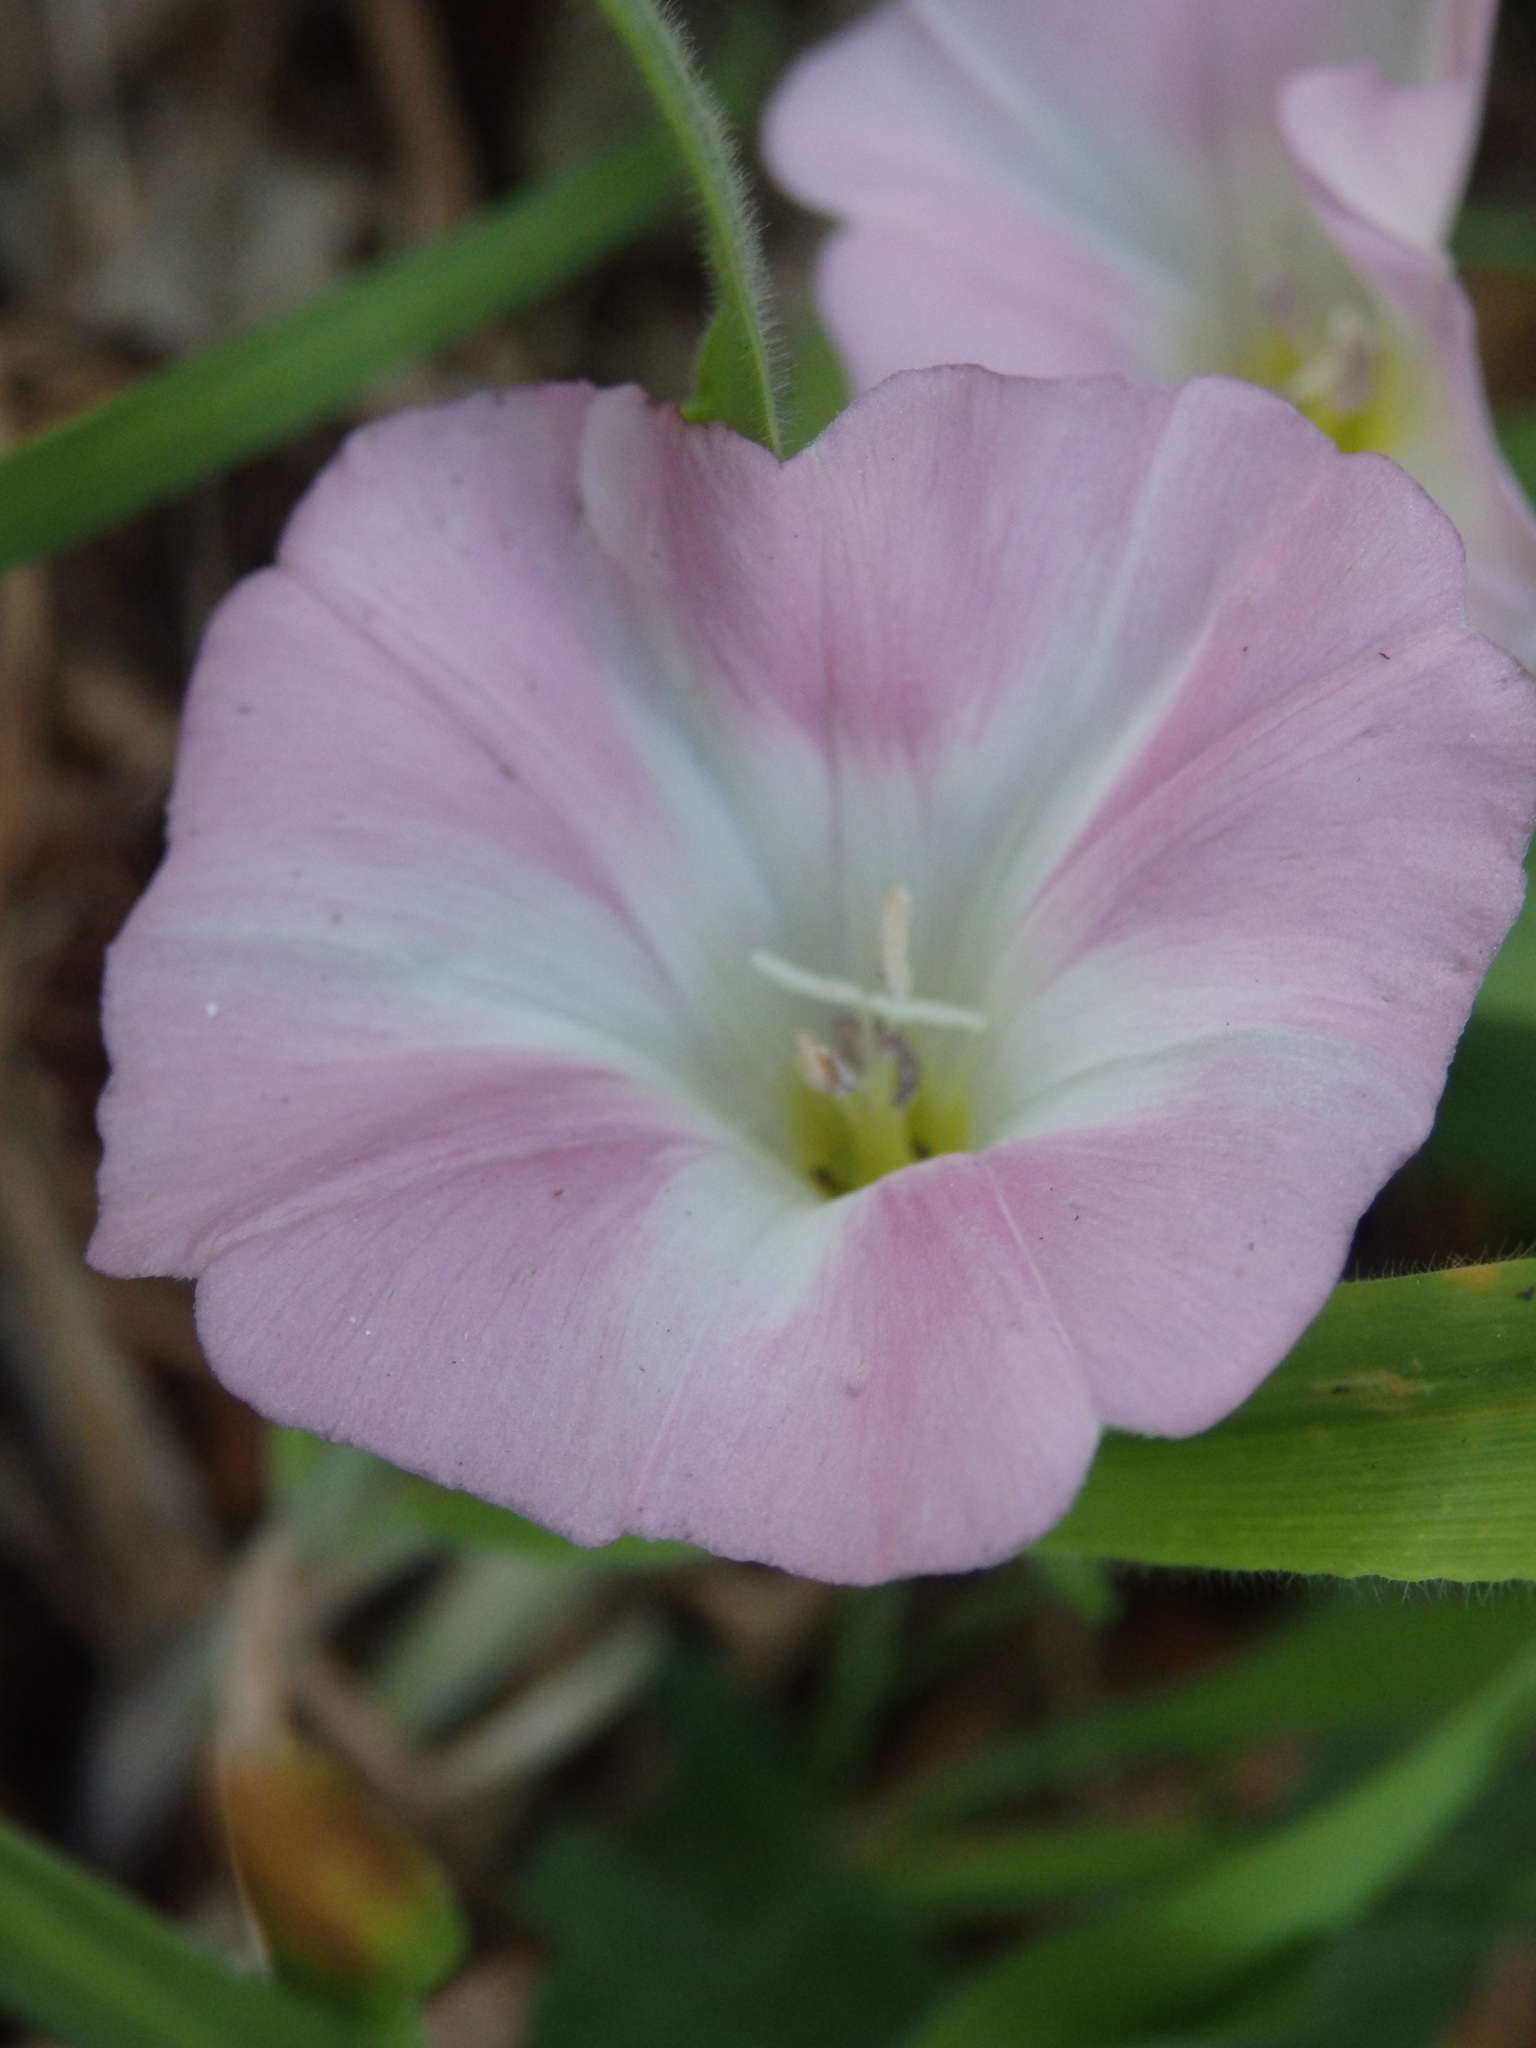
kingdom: Plantae
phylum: Tracheophyta
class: Magnoliopsida
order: Solanales
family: Convolvulaceae
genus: Convolvulus
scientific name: Convolvulus arvensis
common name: Field bindweed
